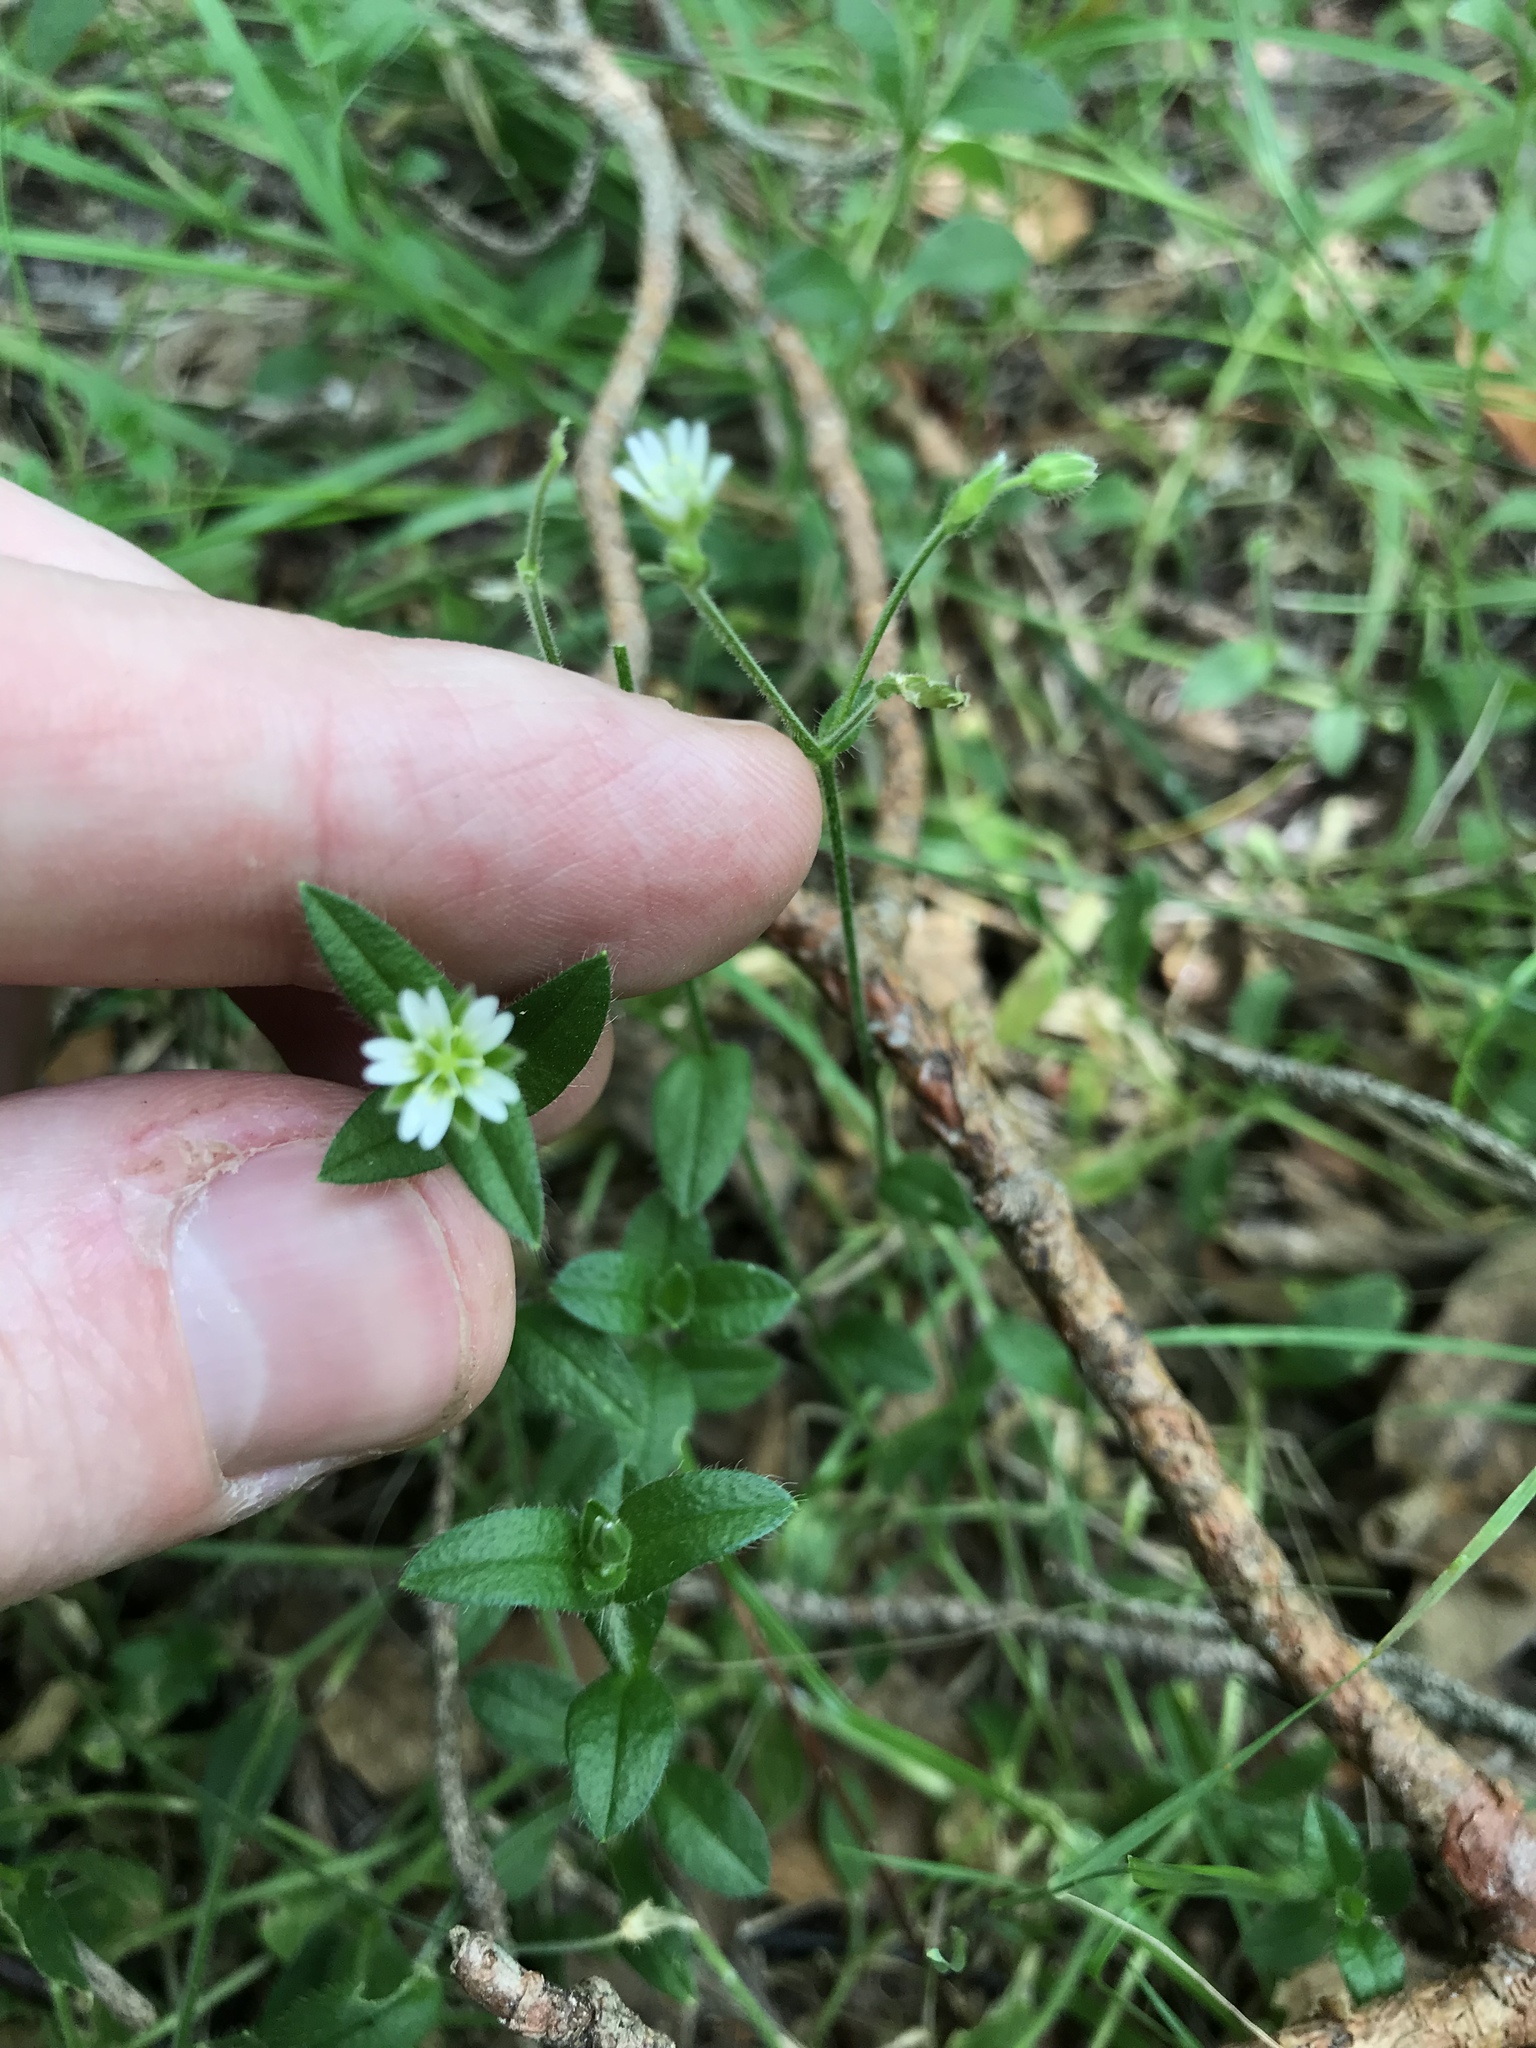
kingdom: Plantae
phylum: Tracheophyta
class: Magnoliopsida
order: Caryophyllales
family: Caryophyllaceae
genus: Cerastium
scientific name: Cerastium fontanum
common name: Common mouse-ear
